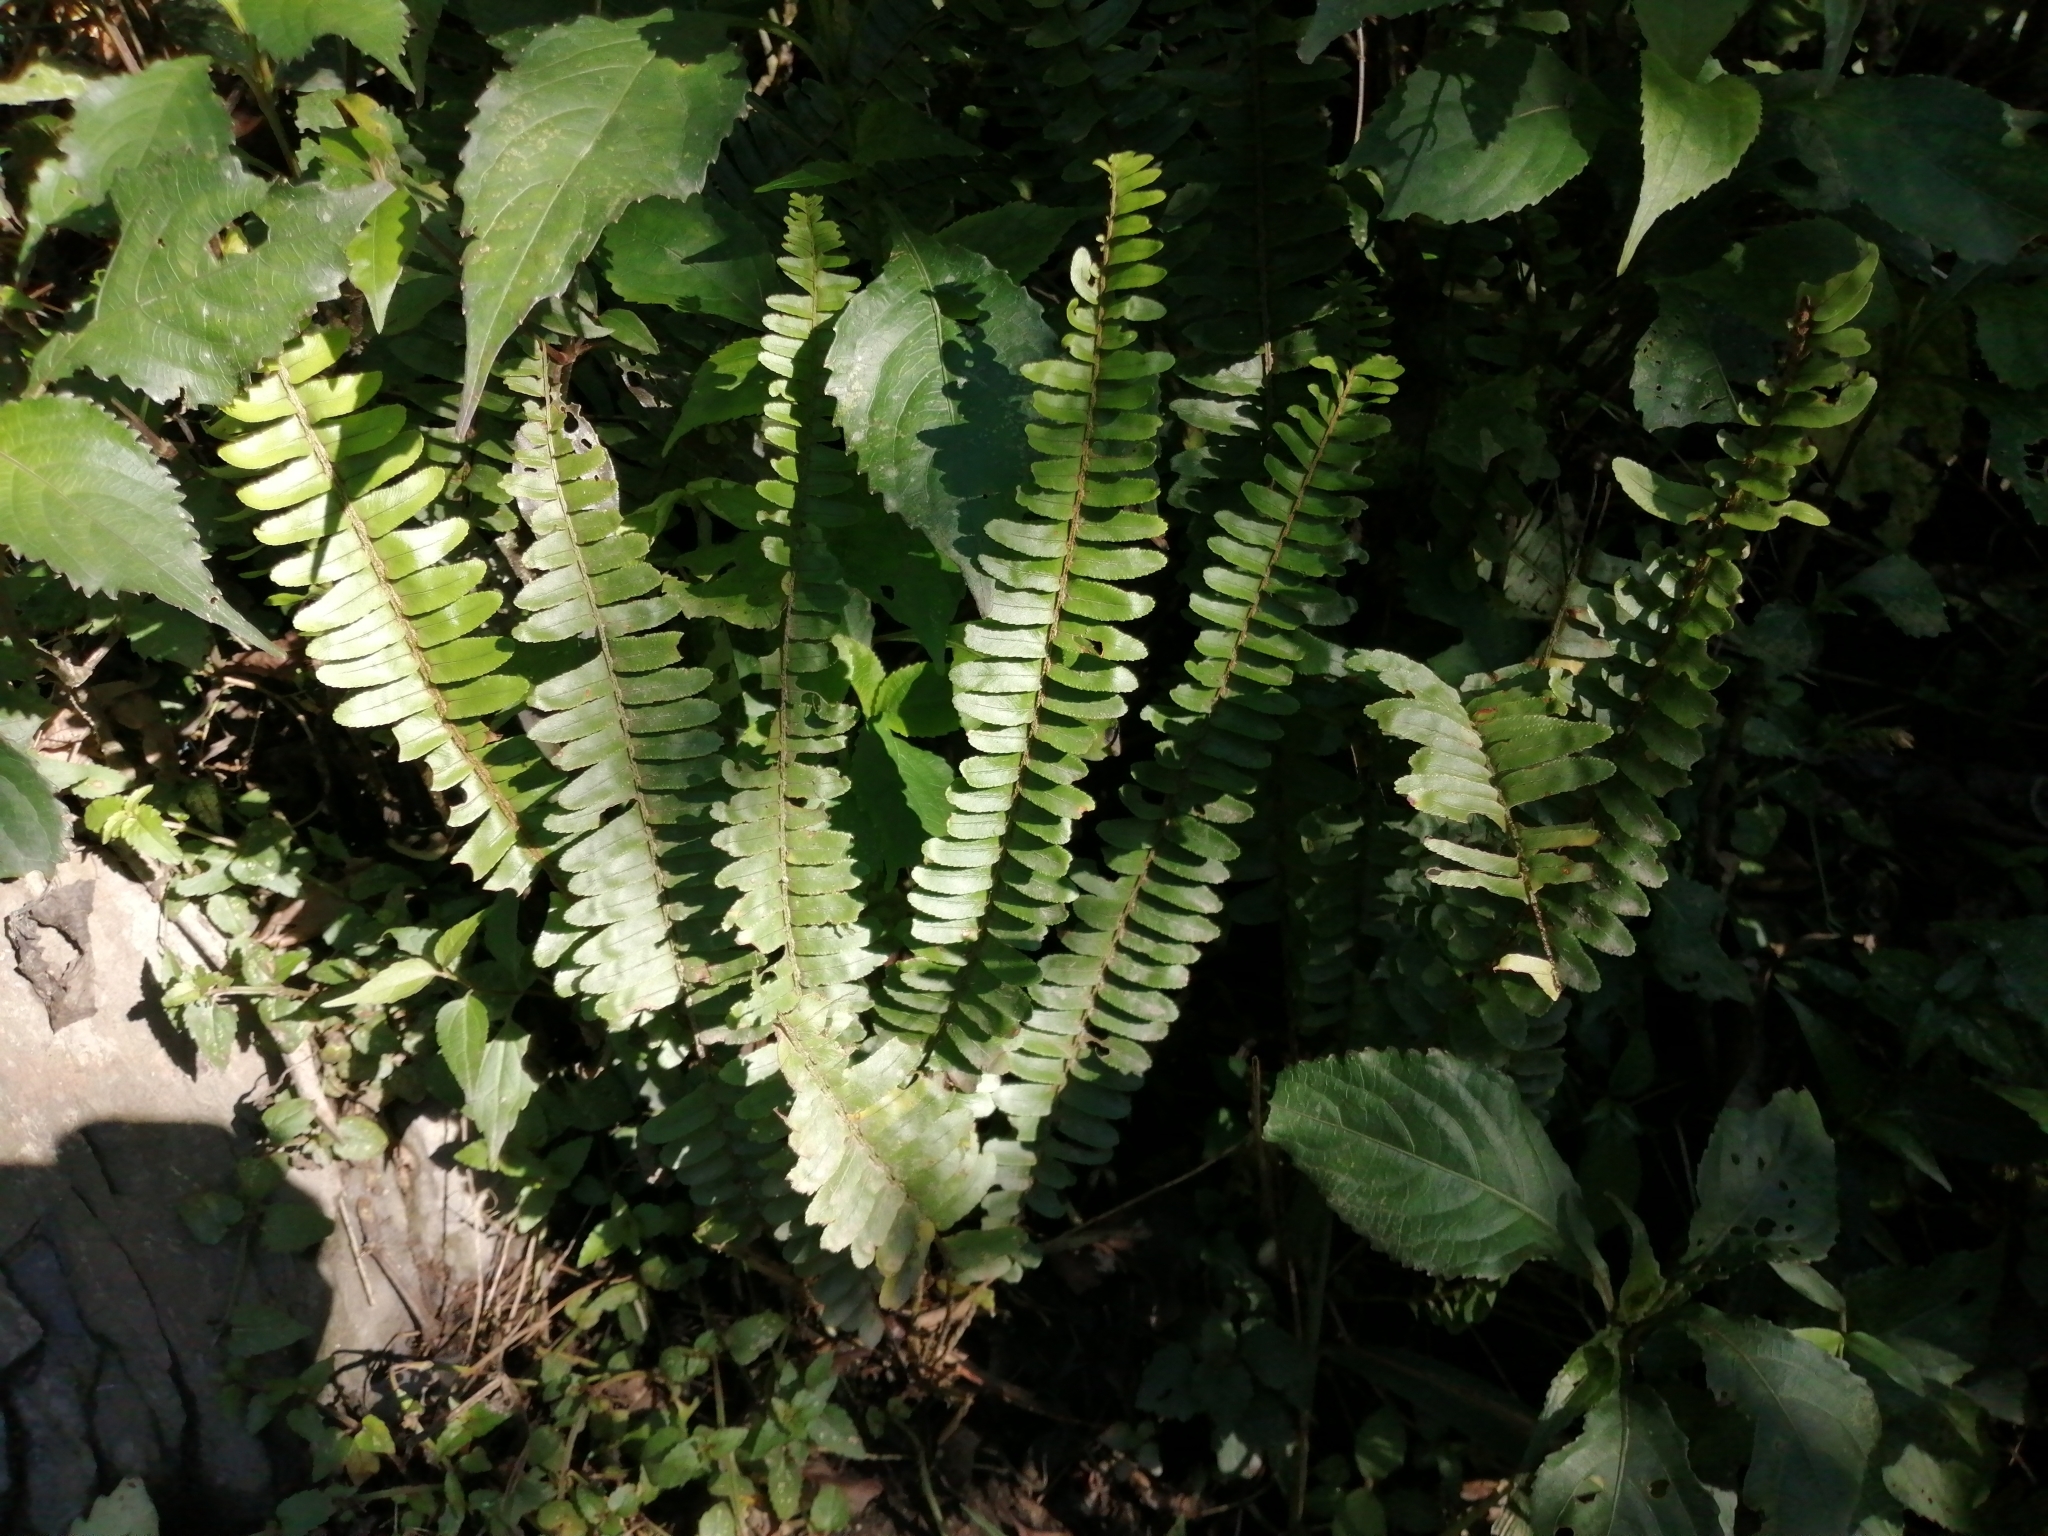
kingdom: Plantae
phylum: Tracheophyta
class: Polypodiopsida
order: Polypodiales
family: Nephrolepidaceae
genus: Nephrolepis
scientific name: Nephrolepis cordifolia
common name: Narrow swordfern
